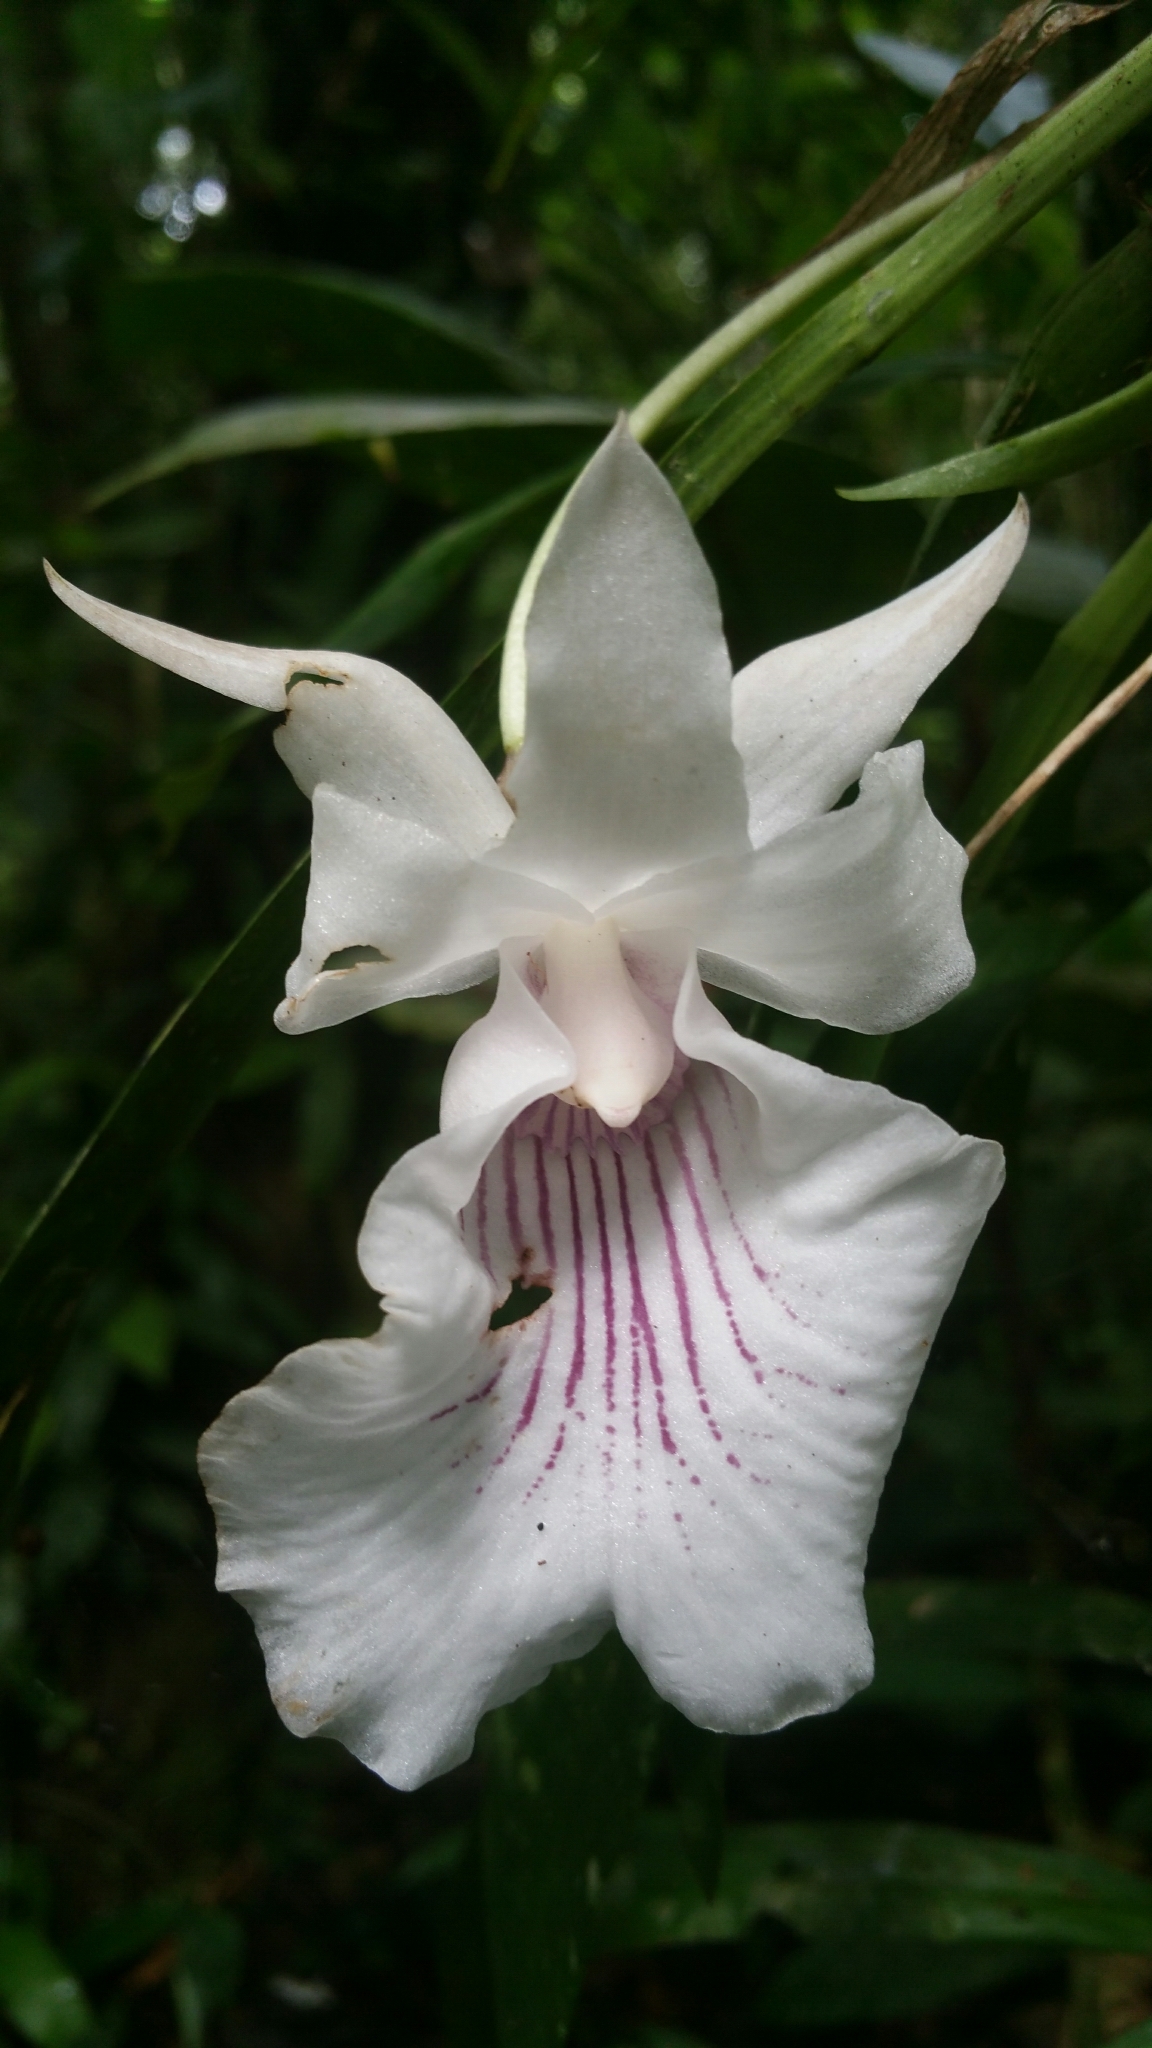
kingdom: Plantae
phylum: Tracheophyta
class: Liliopsida
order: Asparagales
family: Orchidaceae
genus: Warczewiczella
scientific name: Warczewiczella amazonica
